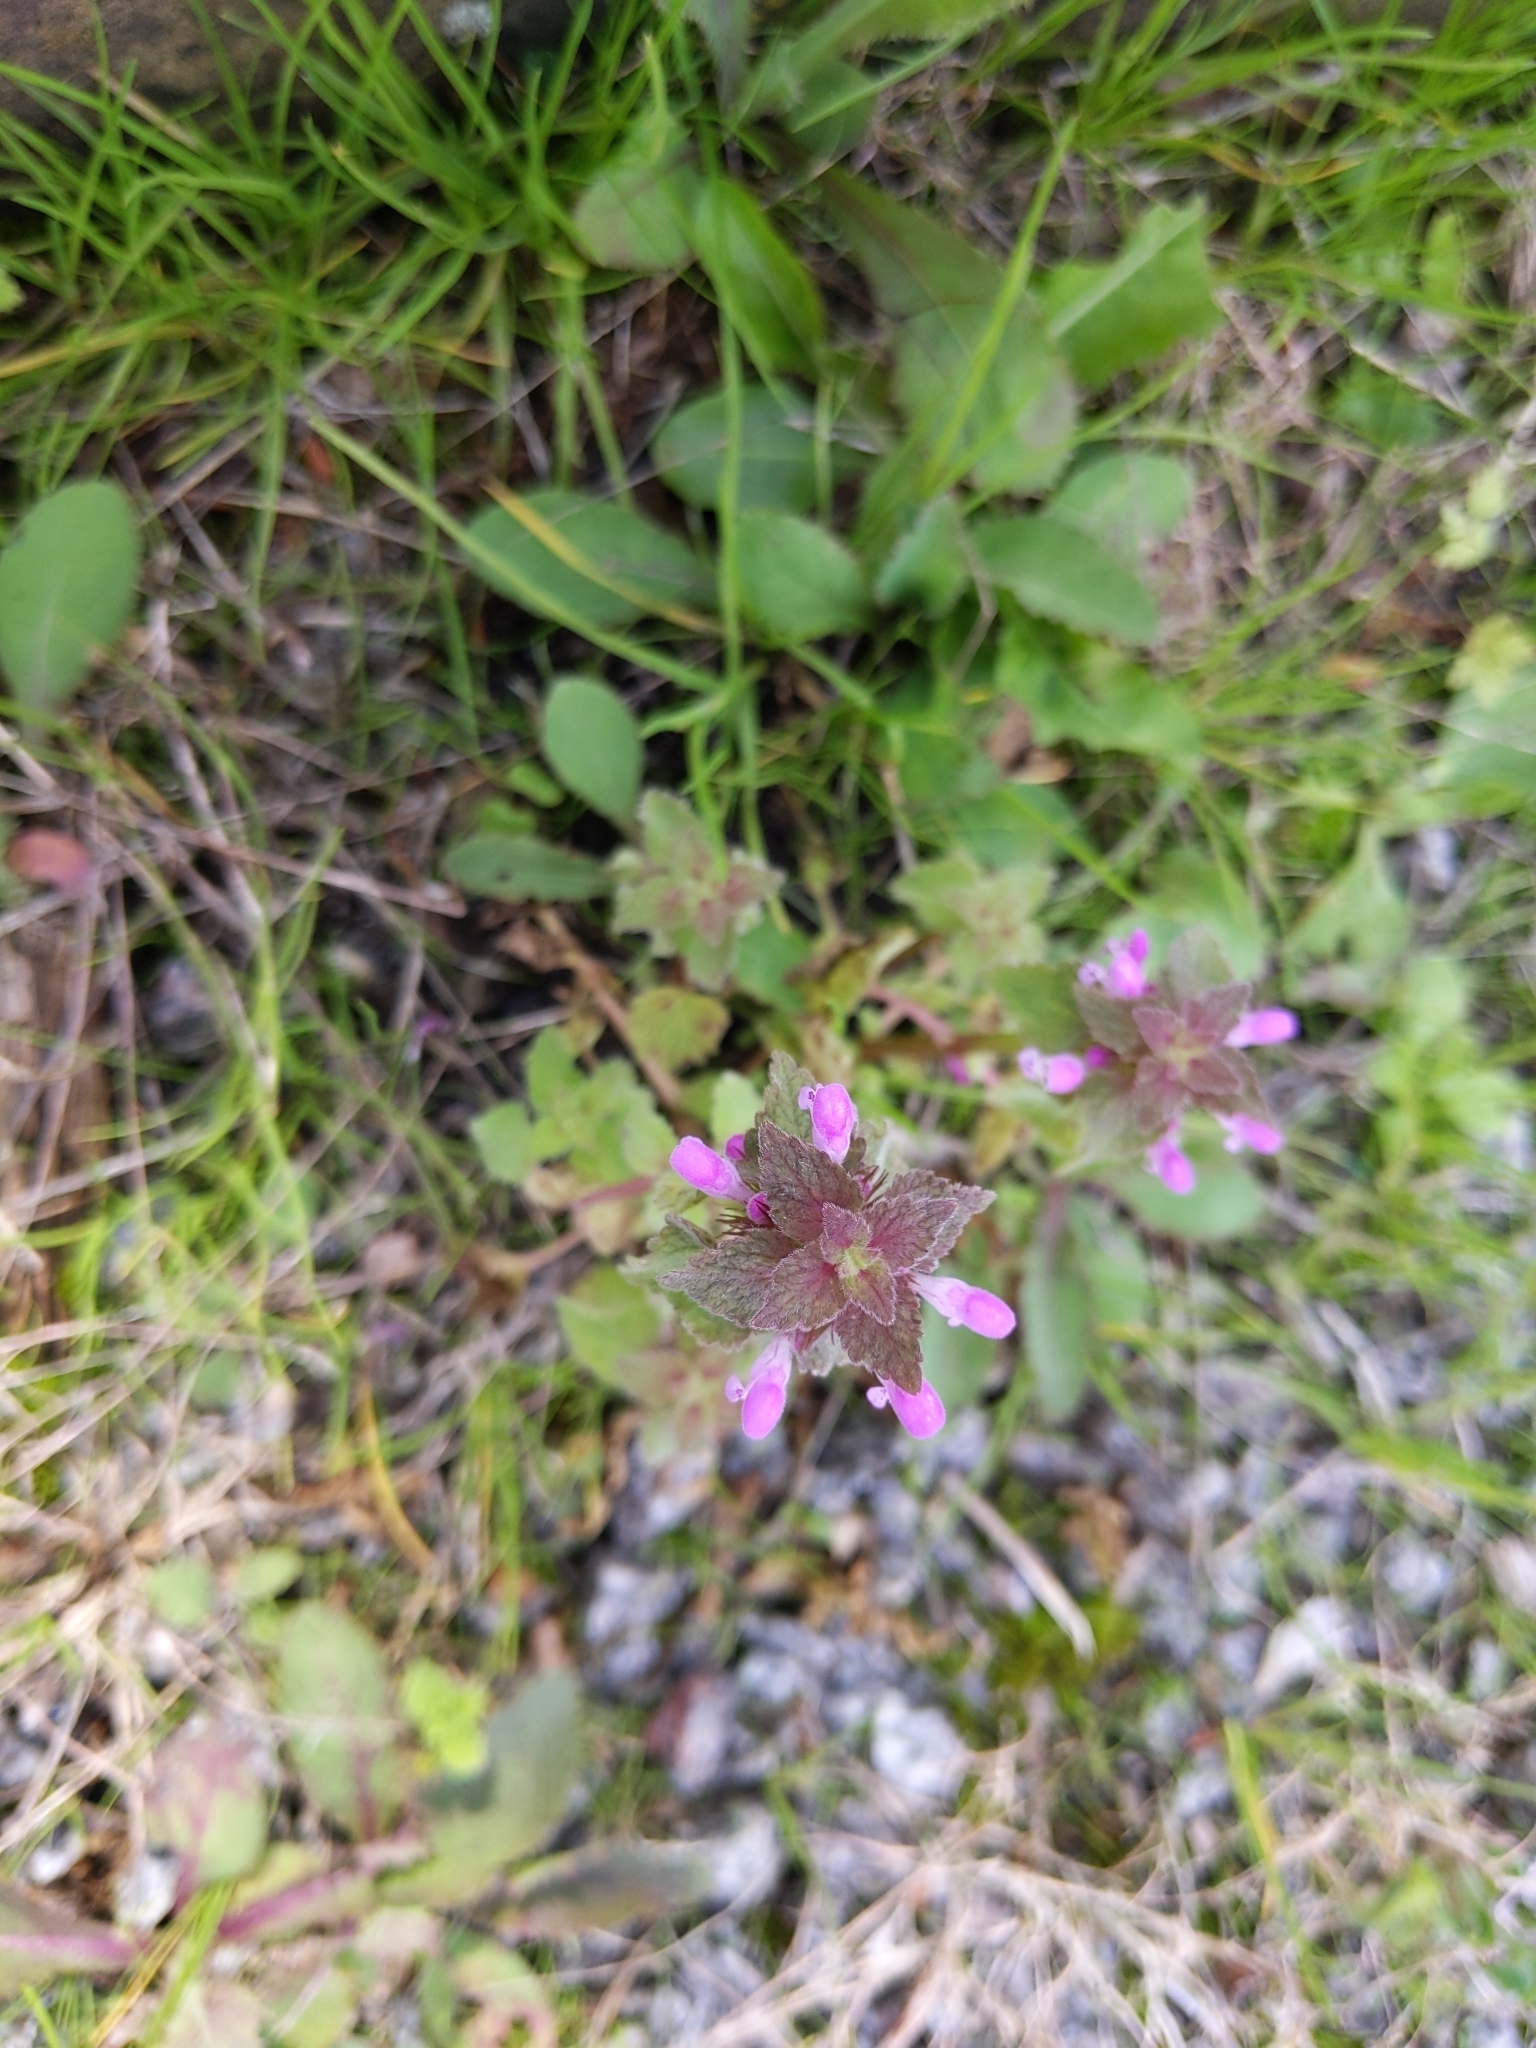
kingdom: Plantae
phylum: Tracheophyta
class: Magnoliopsida
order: Lamiales
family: Lamiaceae
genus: Lamium
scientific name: Lamium purpureum
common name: Red dead-nettle
